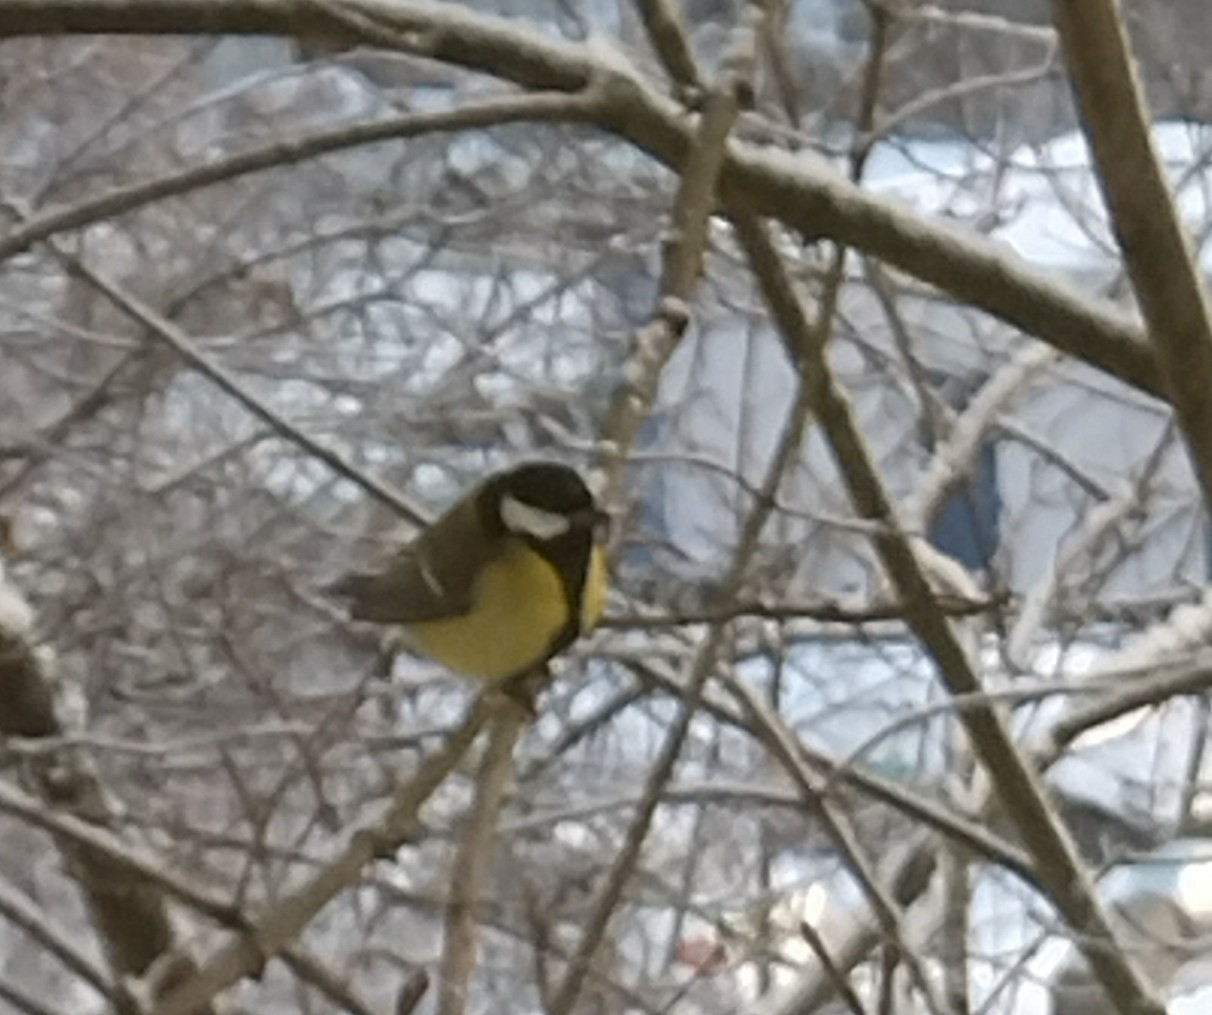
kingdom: Animalia
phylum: Chordata
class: Aves
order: Passeriformes
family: Paridae
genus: Parus
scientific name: Parus major
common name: Great tit
